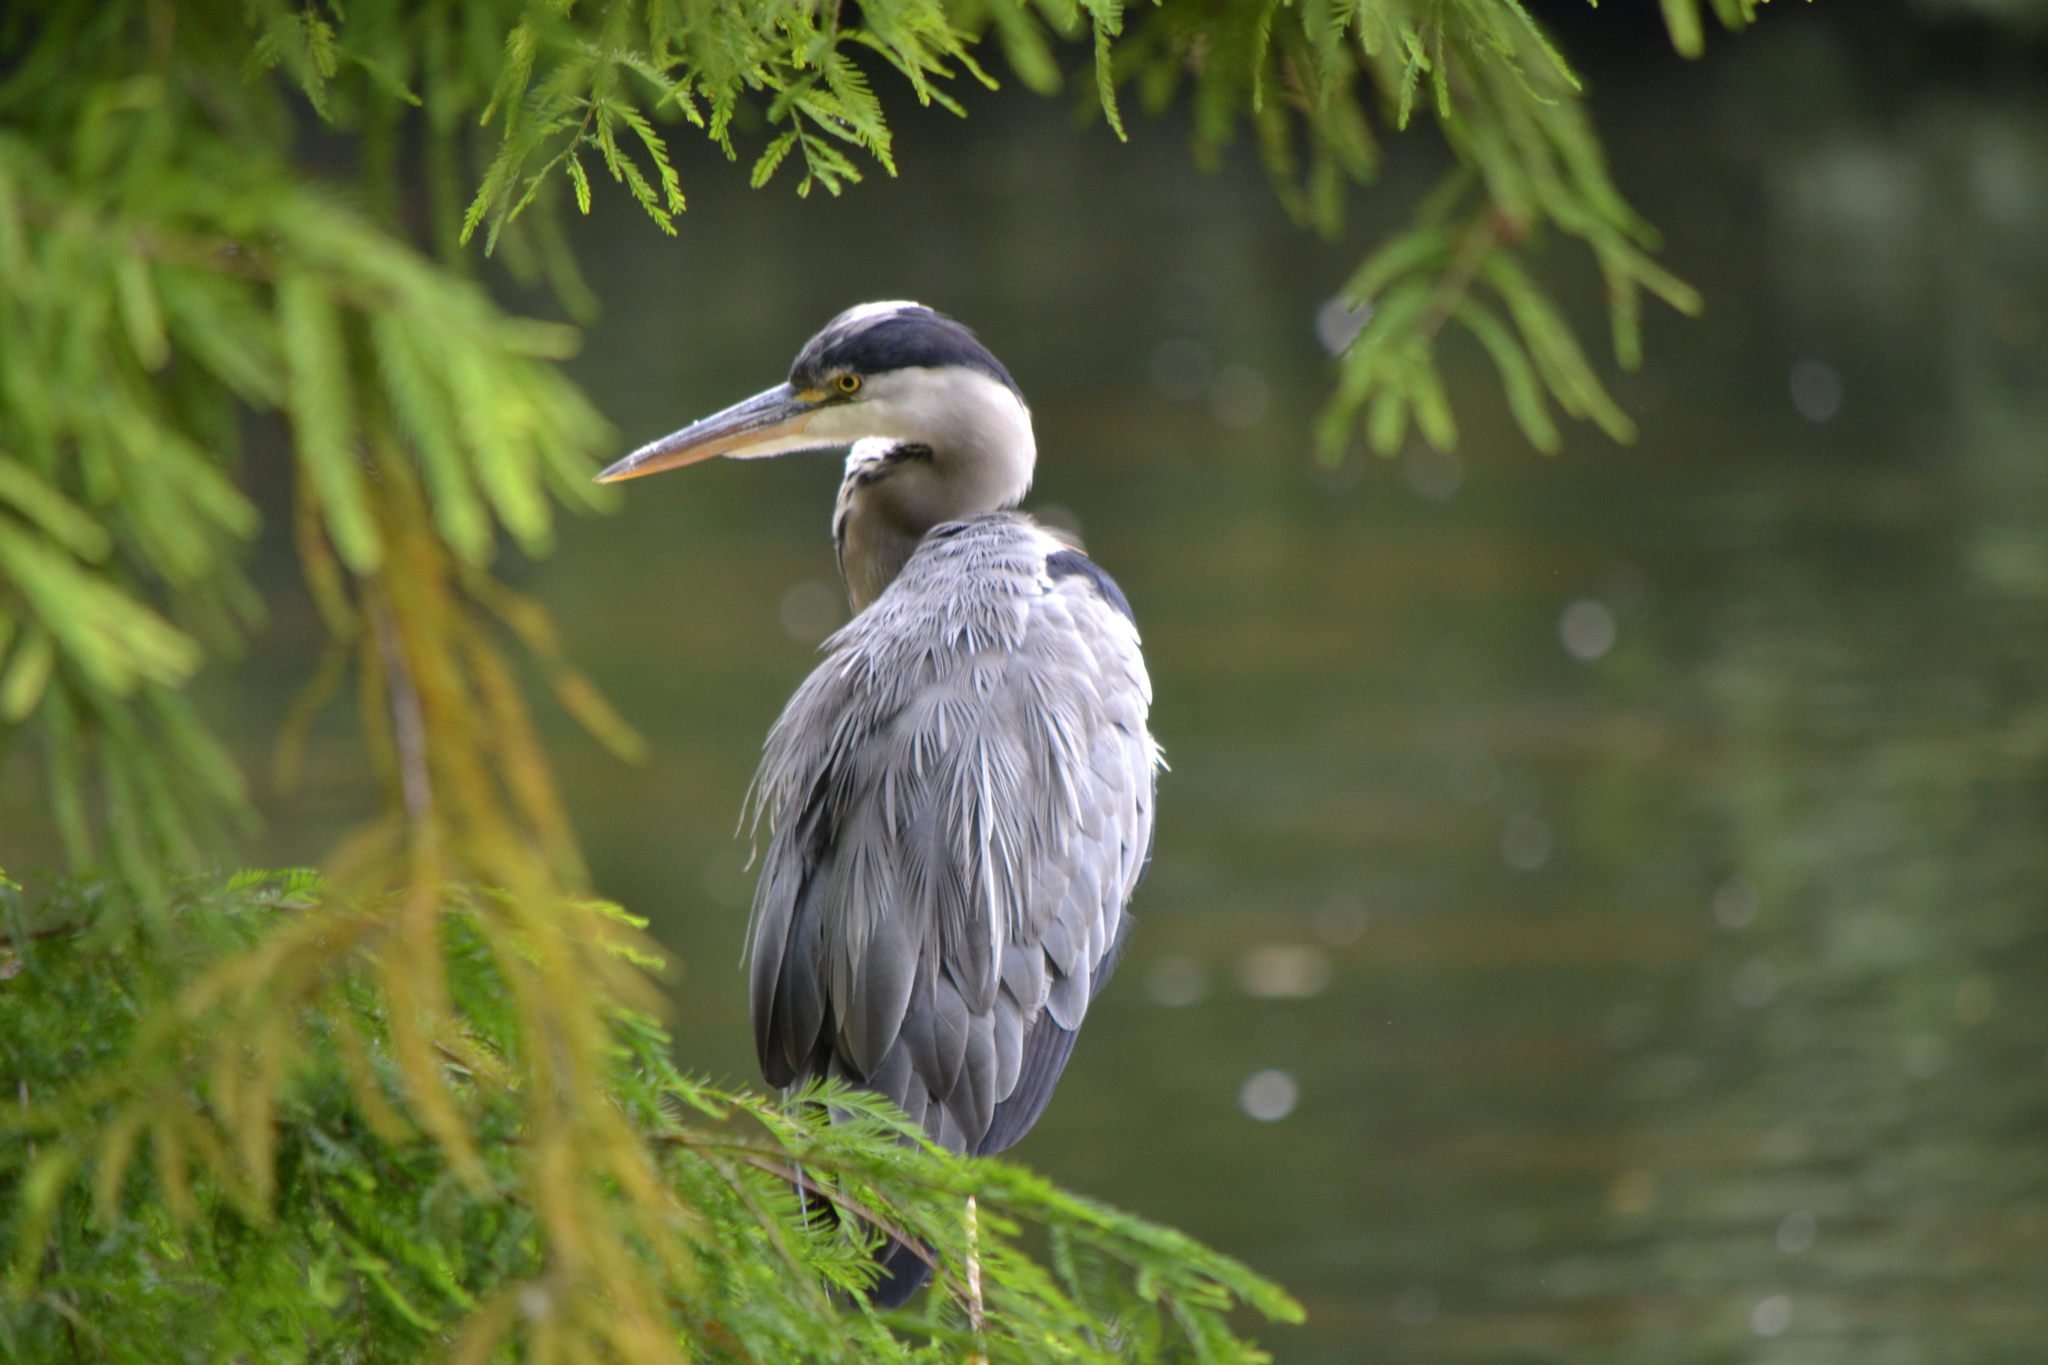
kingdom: Animalia
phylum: Chordata
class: Aves
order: Pelecaniformes
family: Ardeidae
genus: Ardea
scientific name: Ardea cinerea
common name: Grey heron
